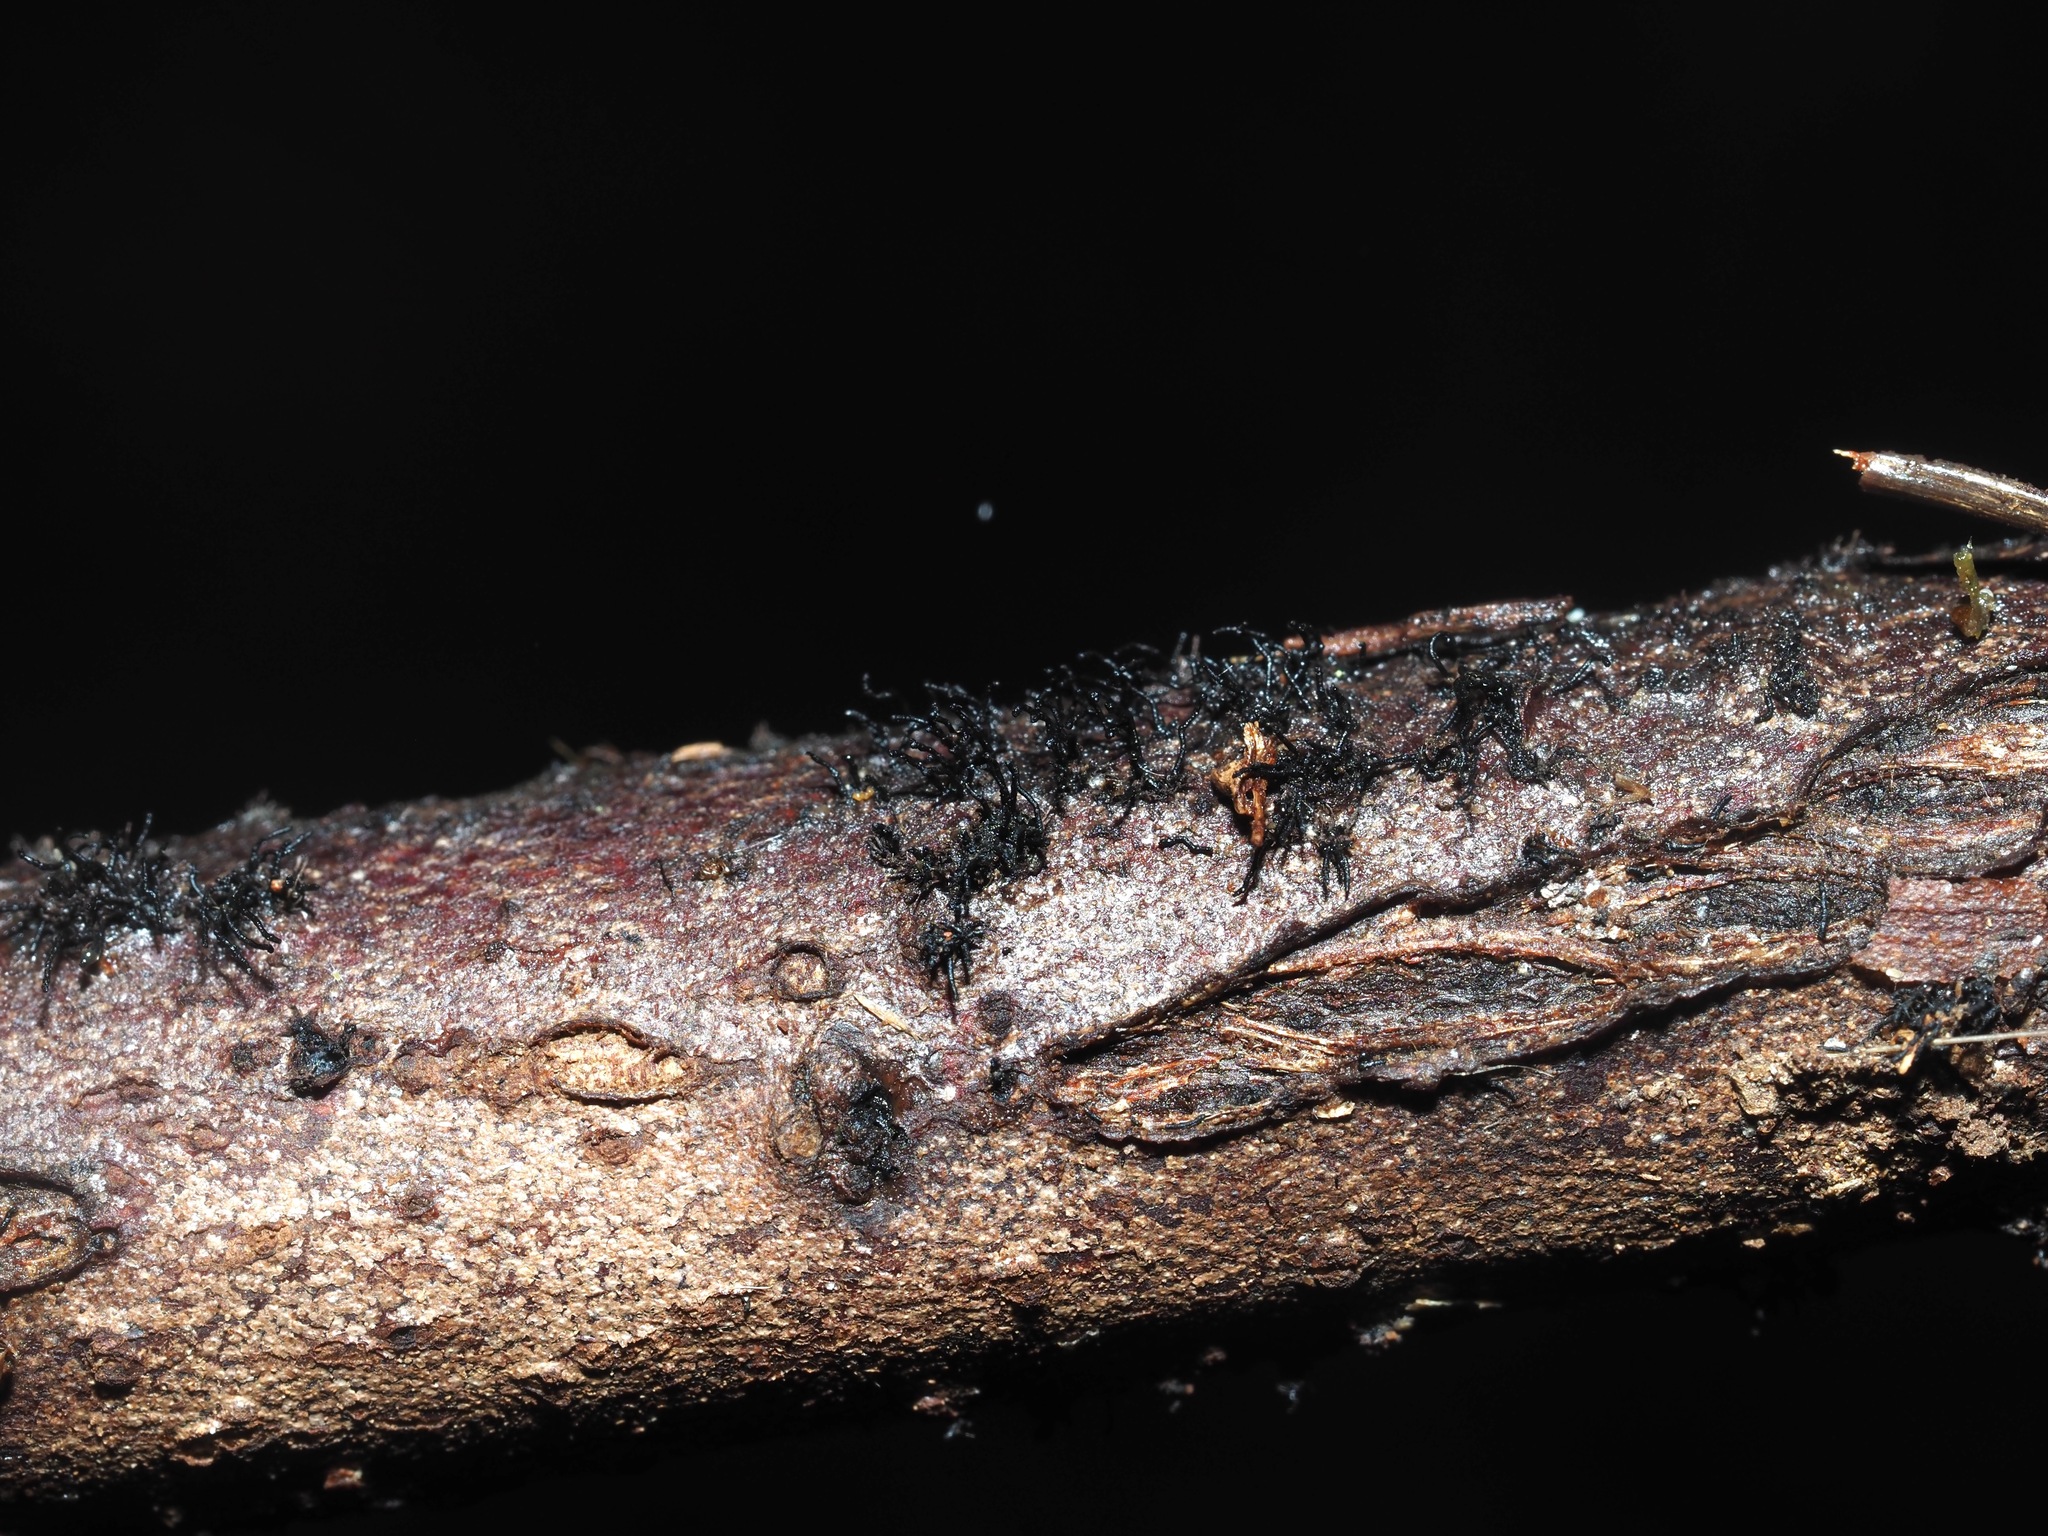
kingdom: Fungi
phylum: Ascomycota
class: Sordariomycetes
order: Xylariales
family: Diatrypaceae
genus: Peroneutypa
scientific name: Peroneutypa scoparia
